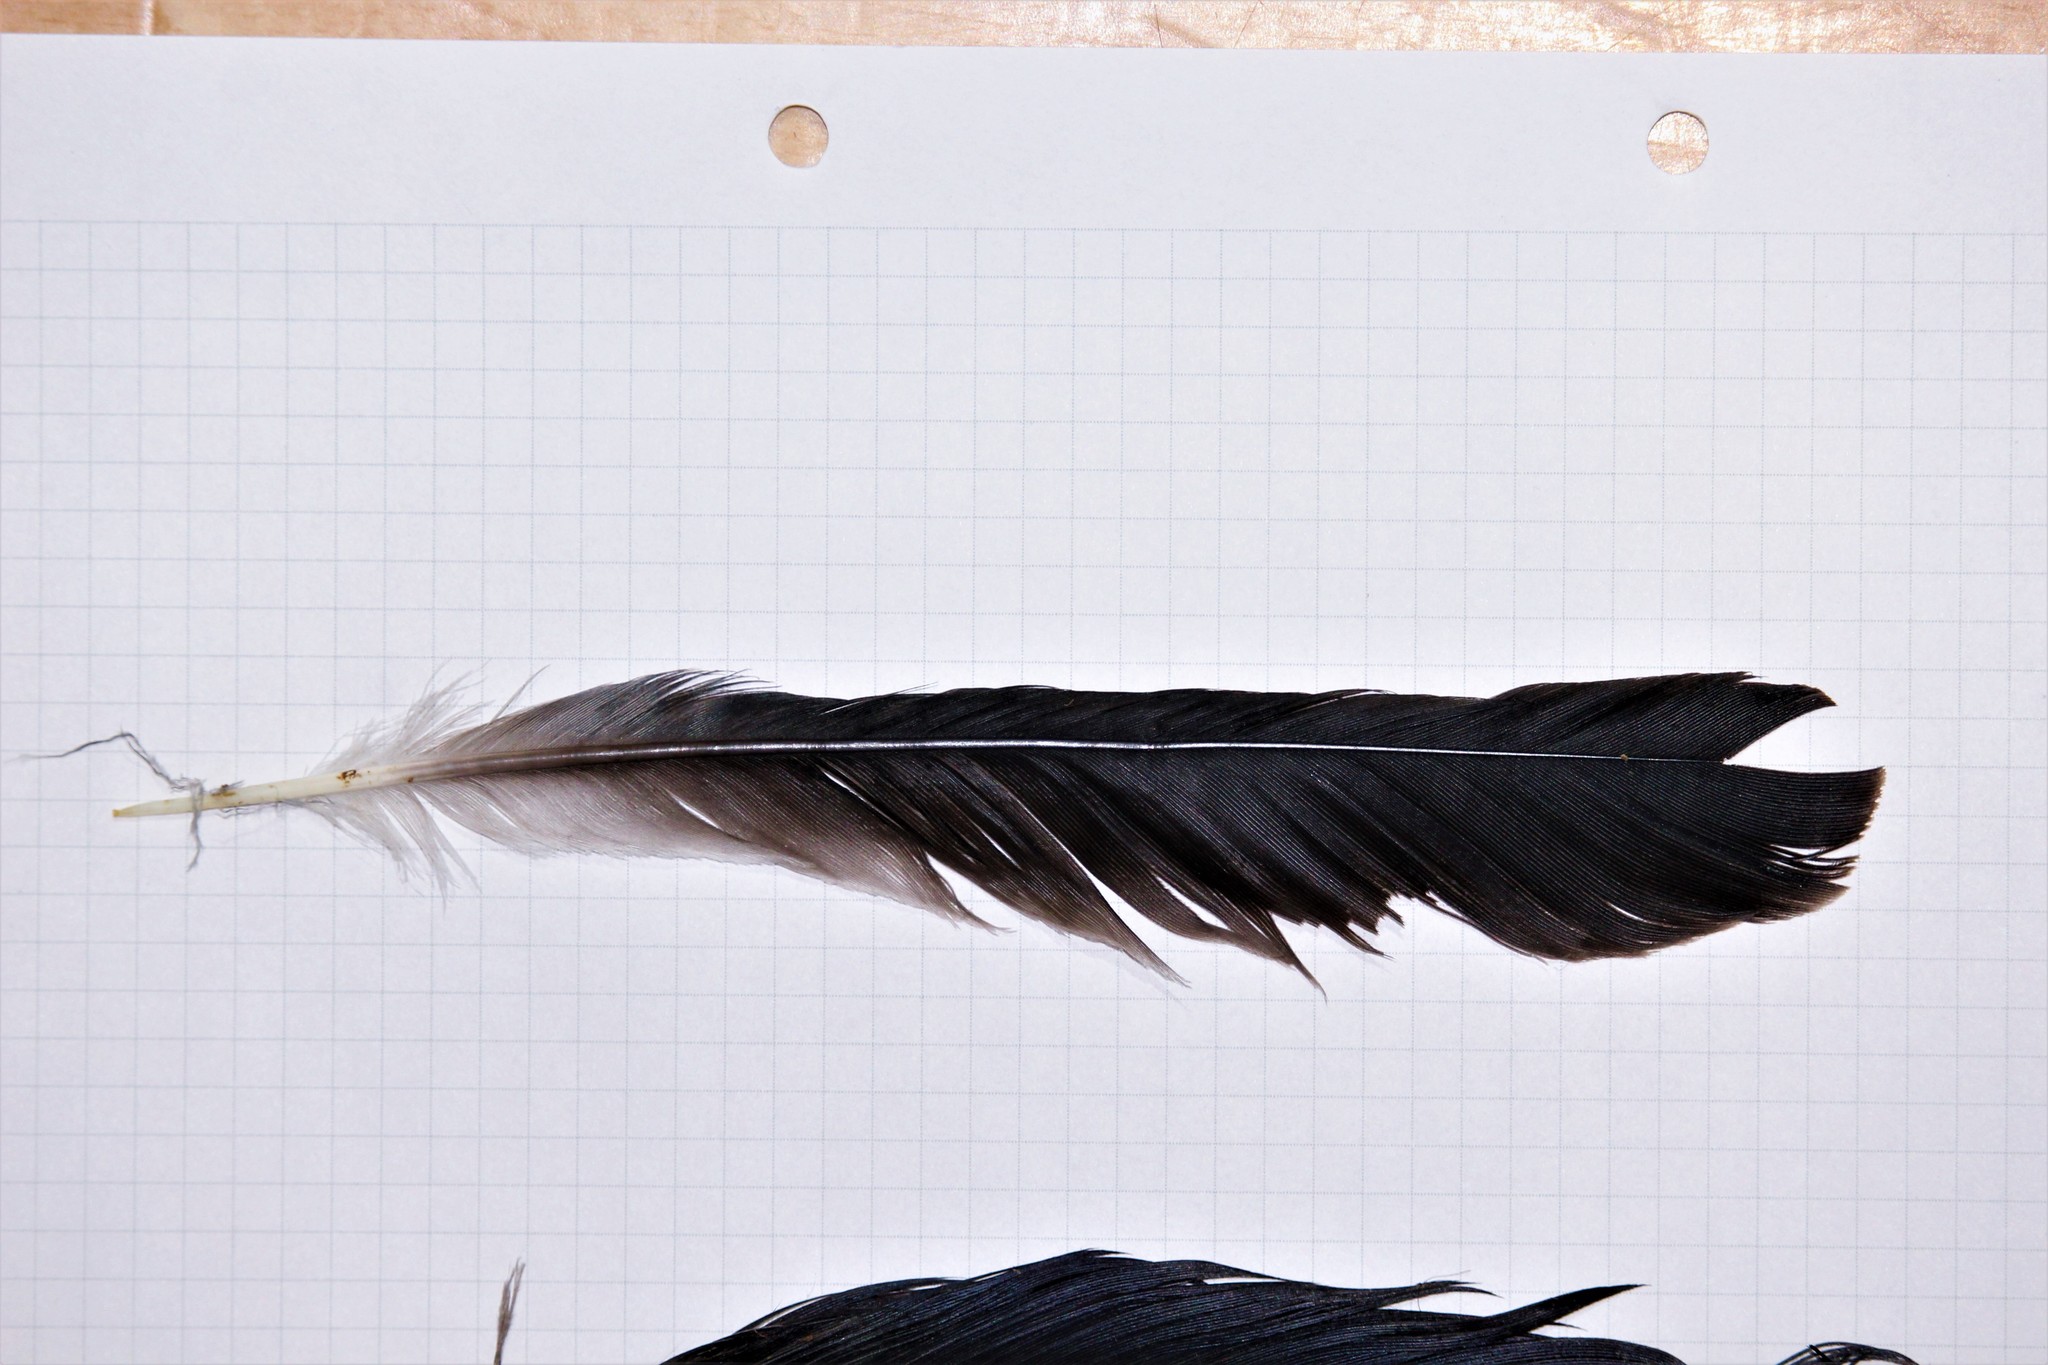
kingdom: Animalia
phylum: Chordata
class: Aves
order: Passeriformes
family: Corvidae
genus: Garrulus
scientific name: Garrulus glandarius
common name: Eurasian jay
